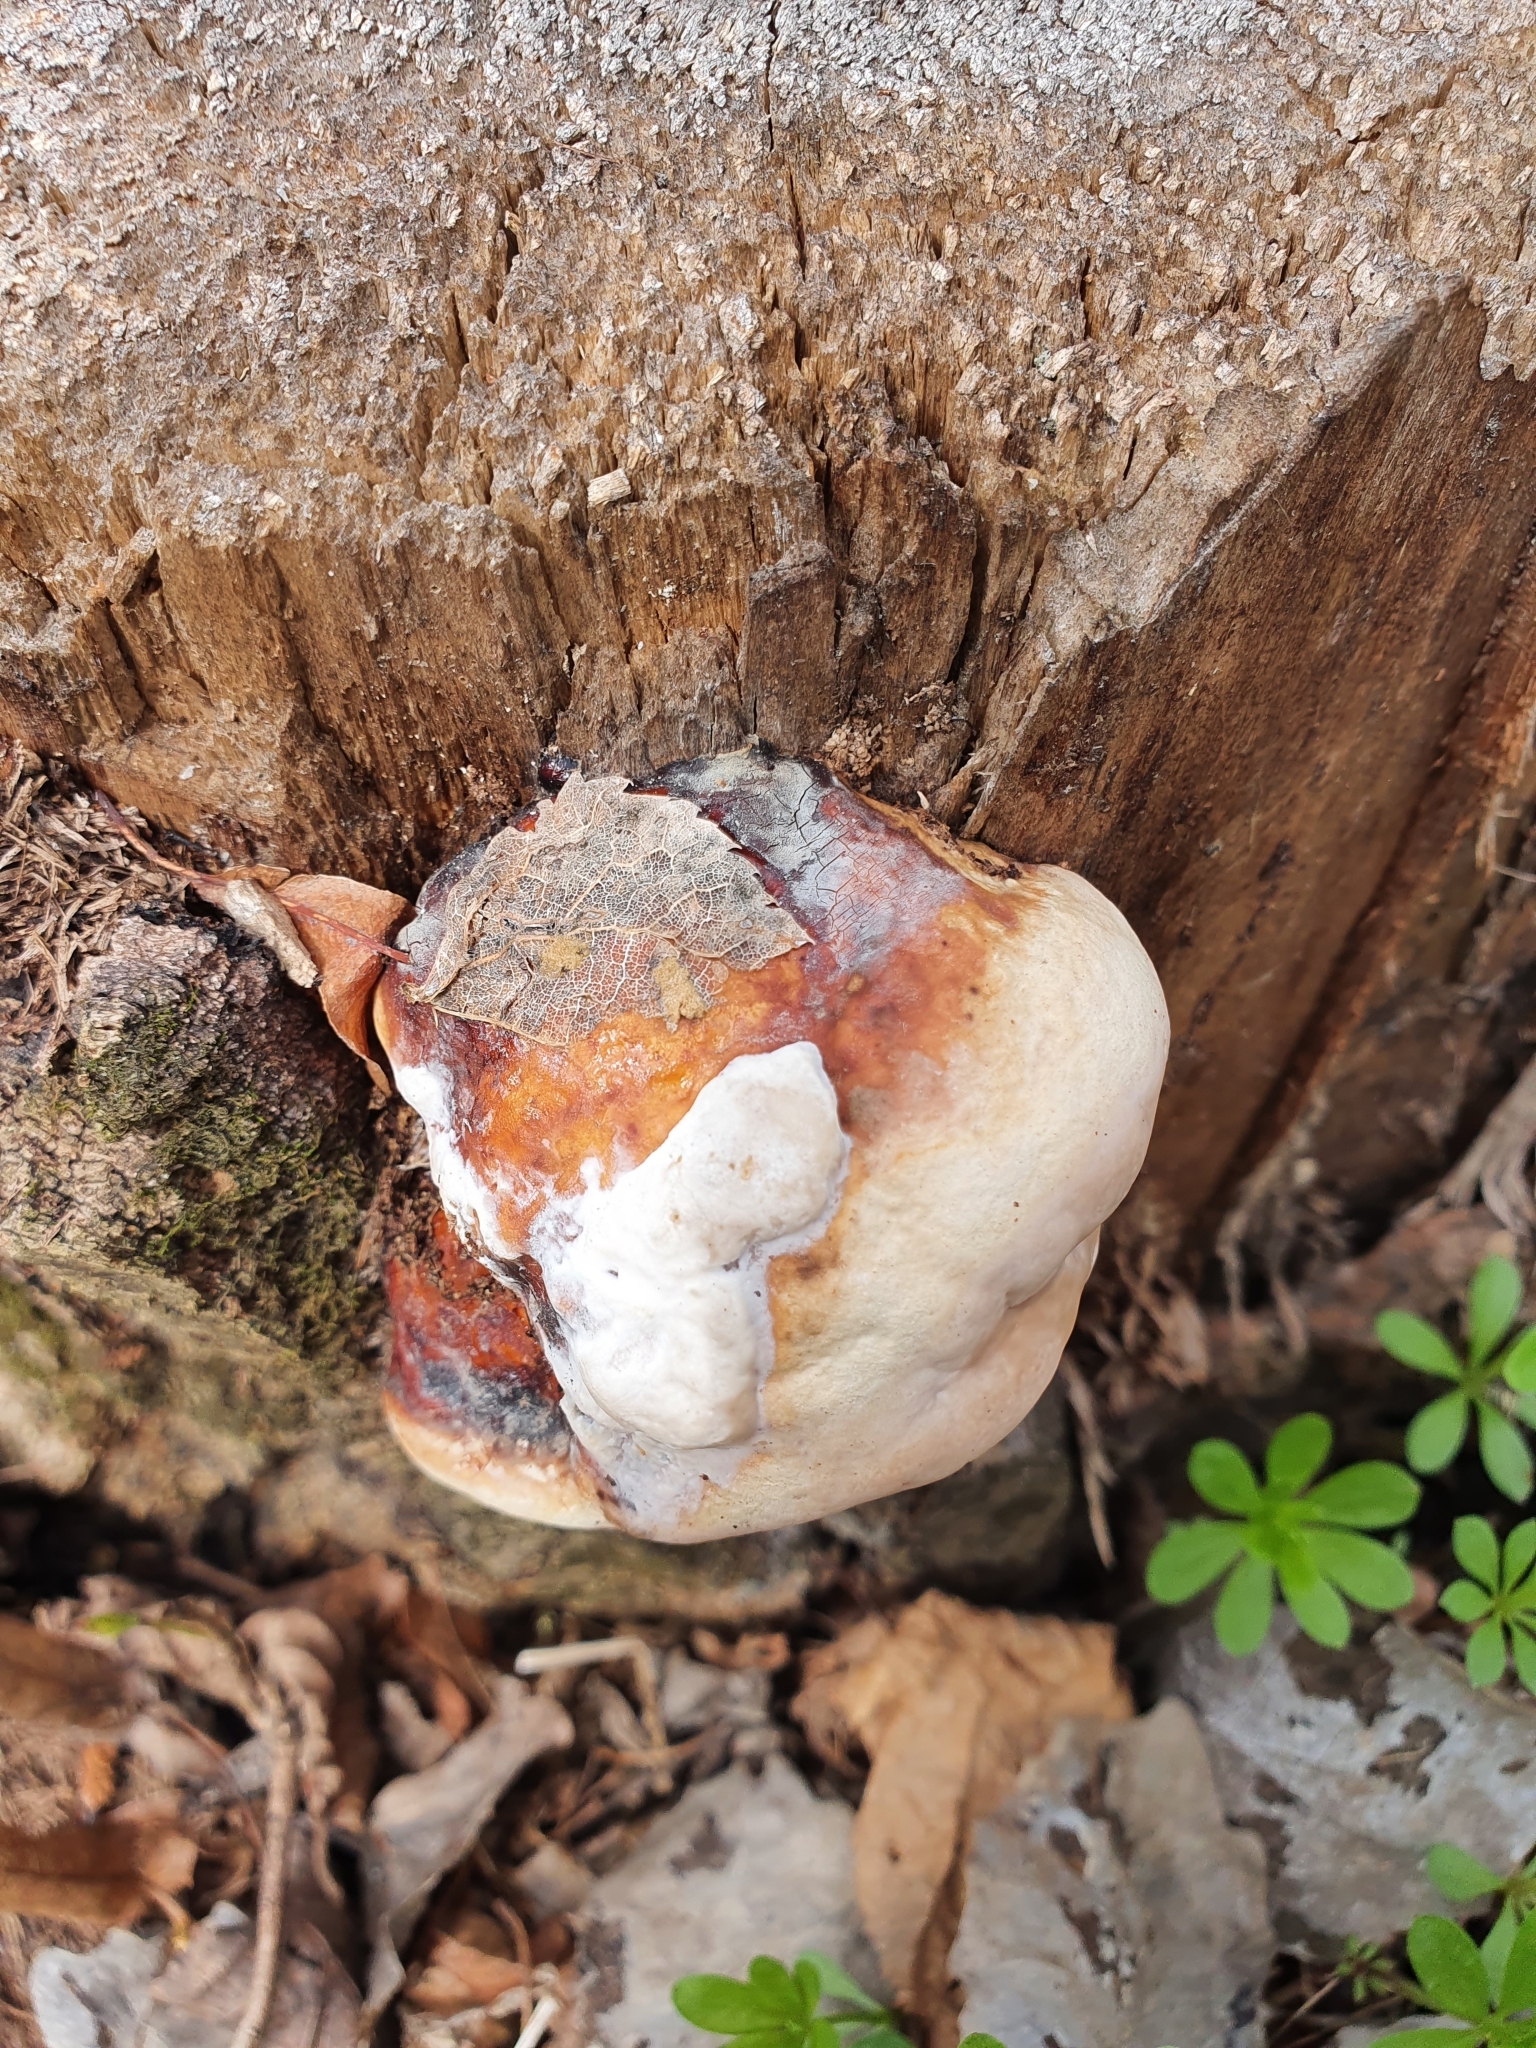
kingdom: Fungi
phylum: Basidiomycota
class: Agaricomycetes
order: Polyporales
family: Fomitopsidaceae
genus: Fomitopsis
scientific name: Fomitopsis pinicola
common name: Red-belted bracket
